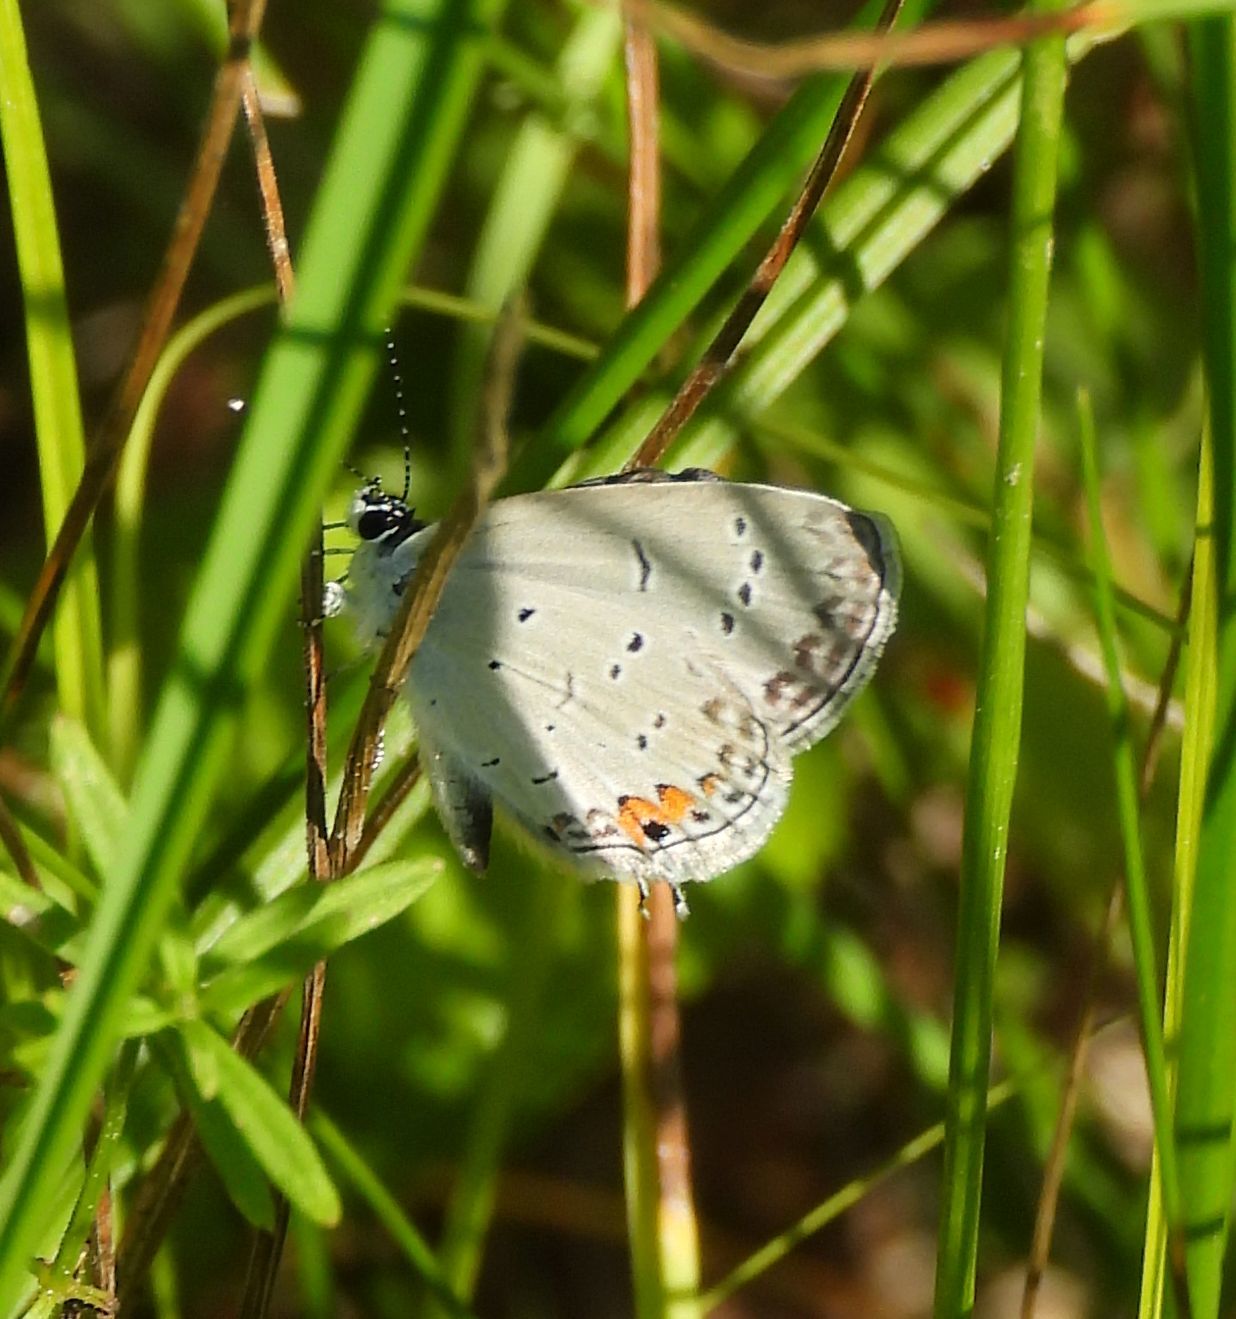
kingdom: Animalia
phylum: Arthropoda
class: Insecta
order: Lepidoptera
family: Lycaenidae
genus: Elkalyce
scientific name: Elkalyce comyntas
